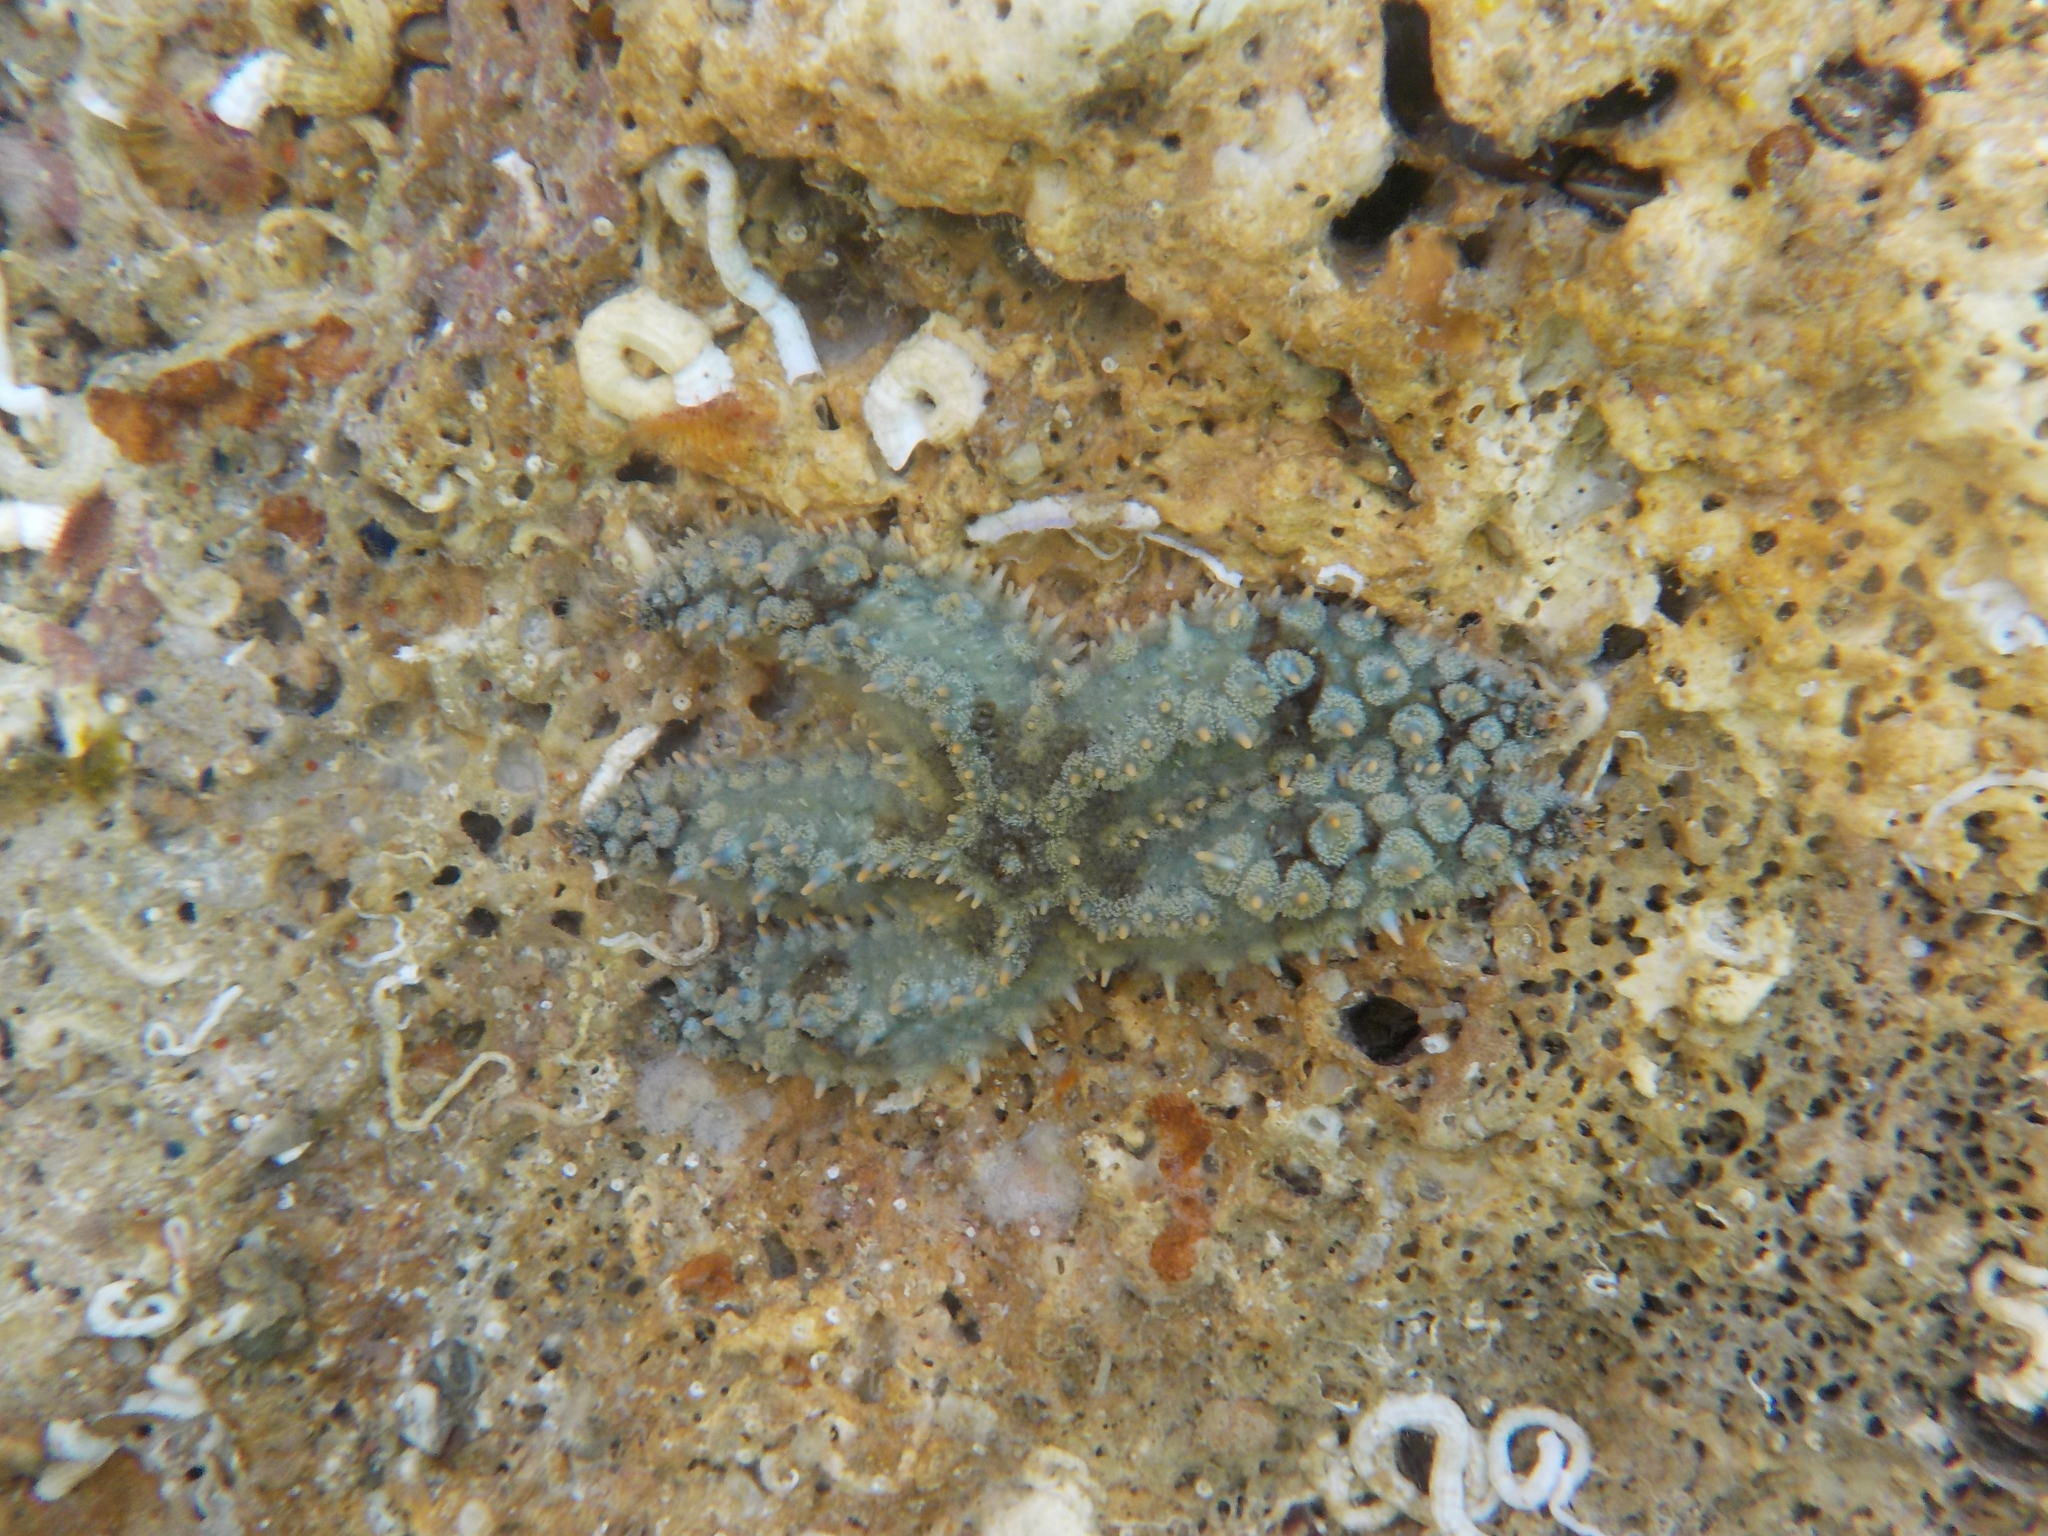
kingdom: Animalia
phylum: Echinodermata
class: Asteroidea
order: Forcipulatida
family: Asteriidae
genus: Marthasterias
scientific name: Marthasterias glacialis
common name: Spiny starfish
